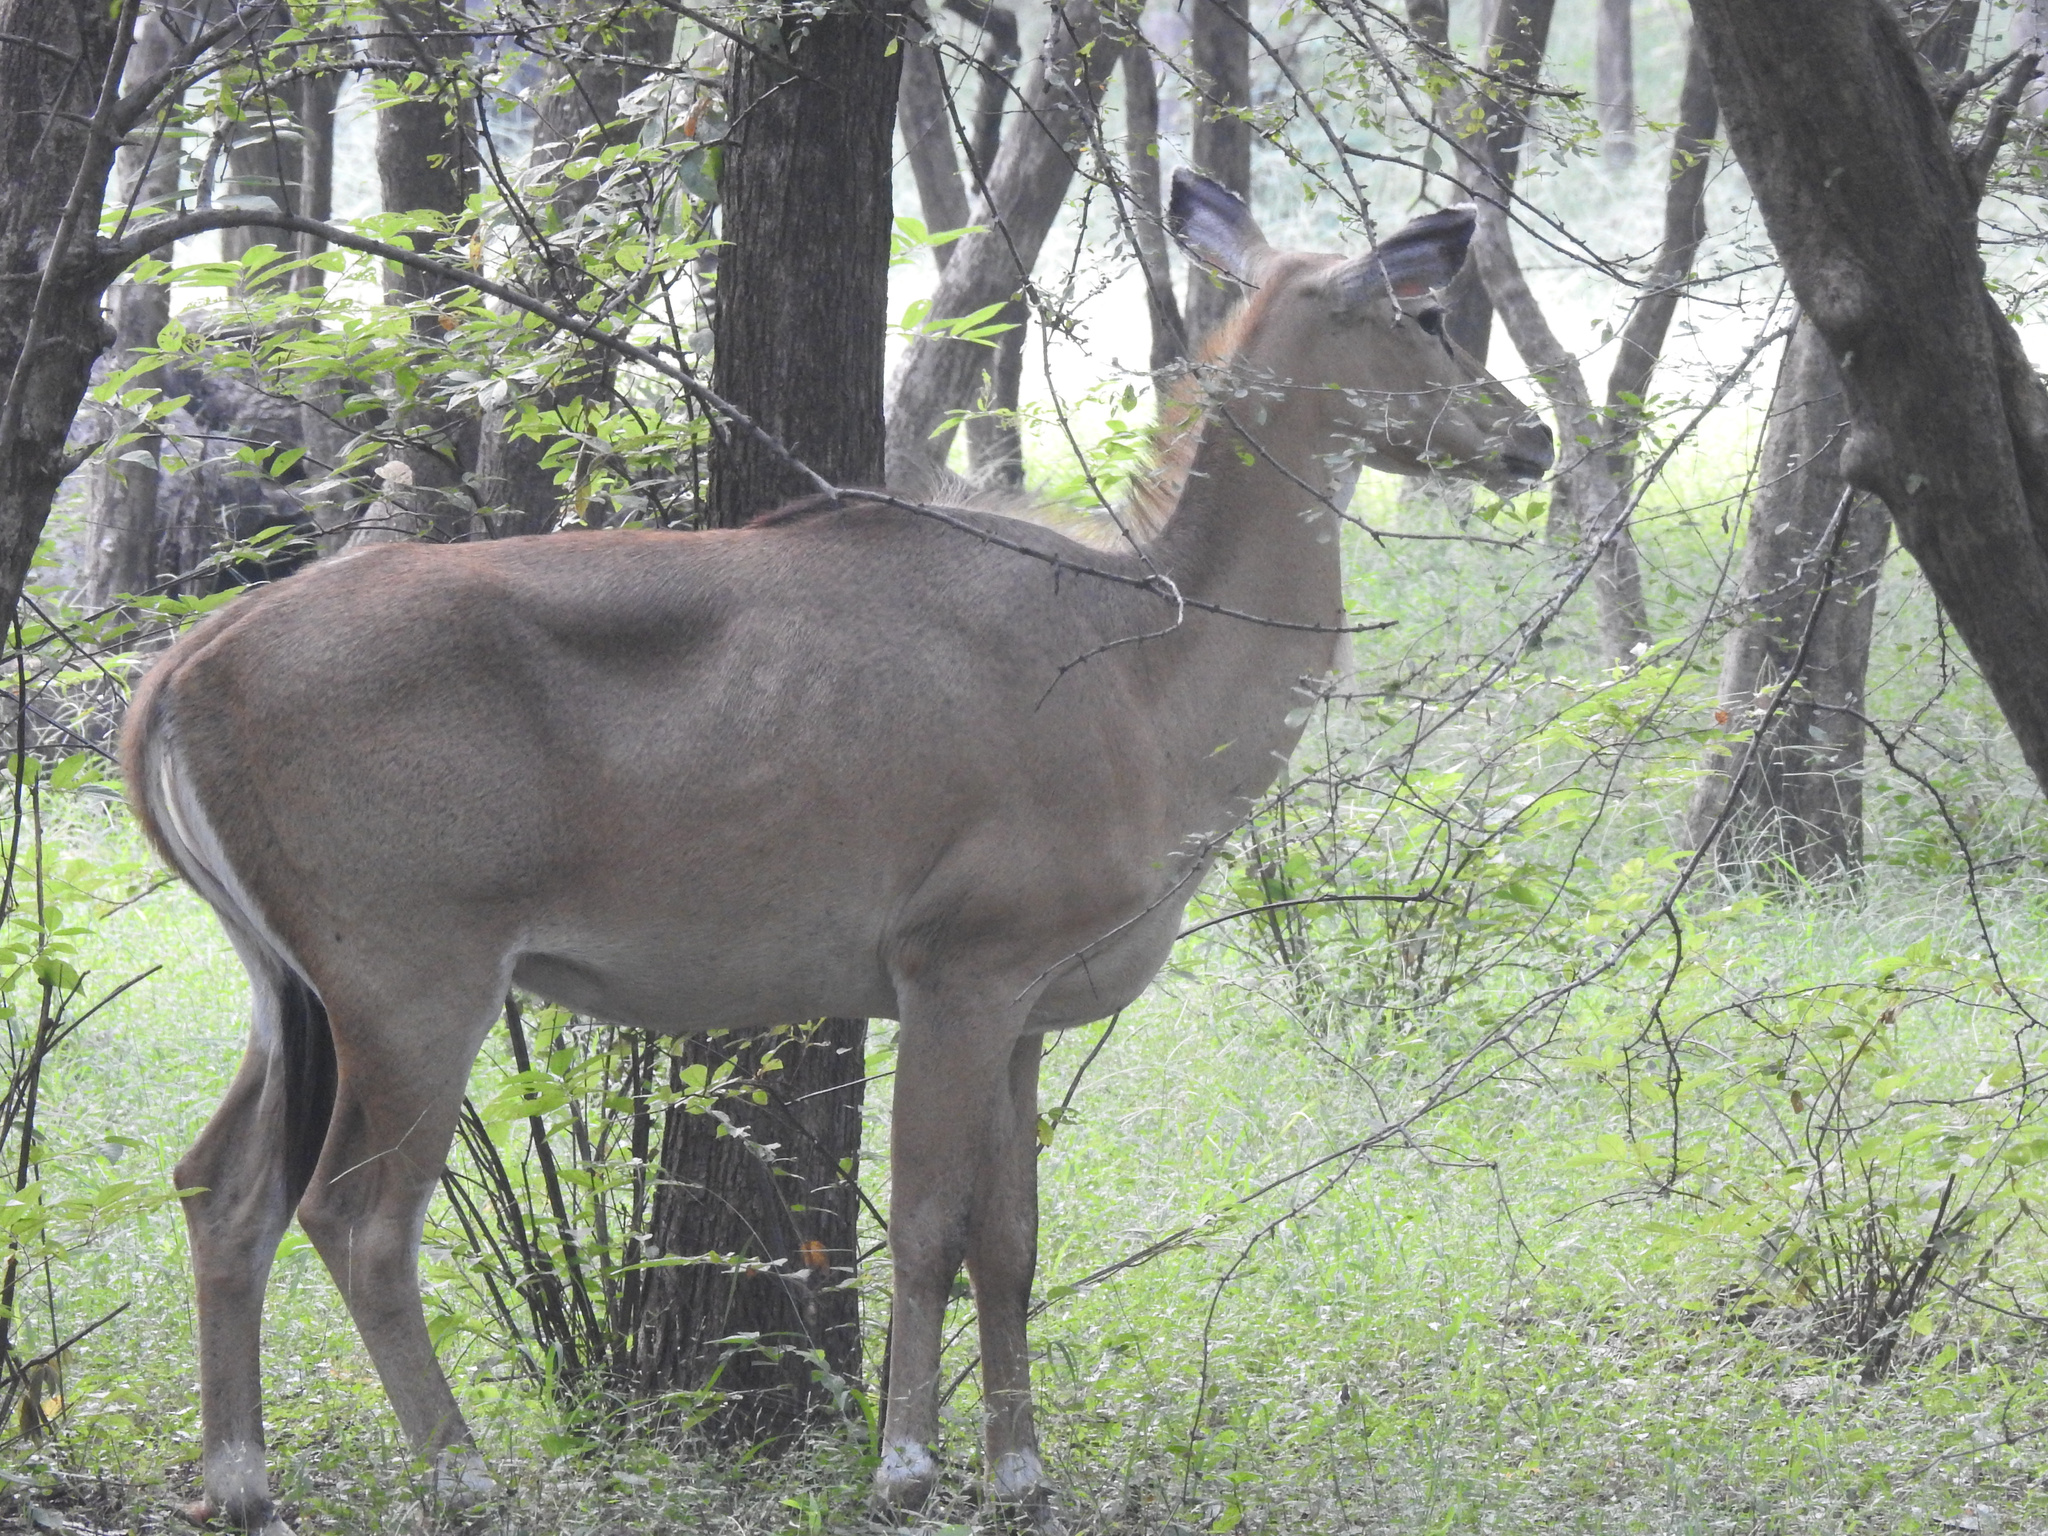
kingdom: Animalia
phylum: Chordata
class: Mammalia
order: Artiodactyla
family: Bovidae
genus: Boselaphus
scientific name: Boselaphus tragocamelus
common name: Nilgai
